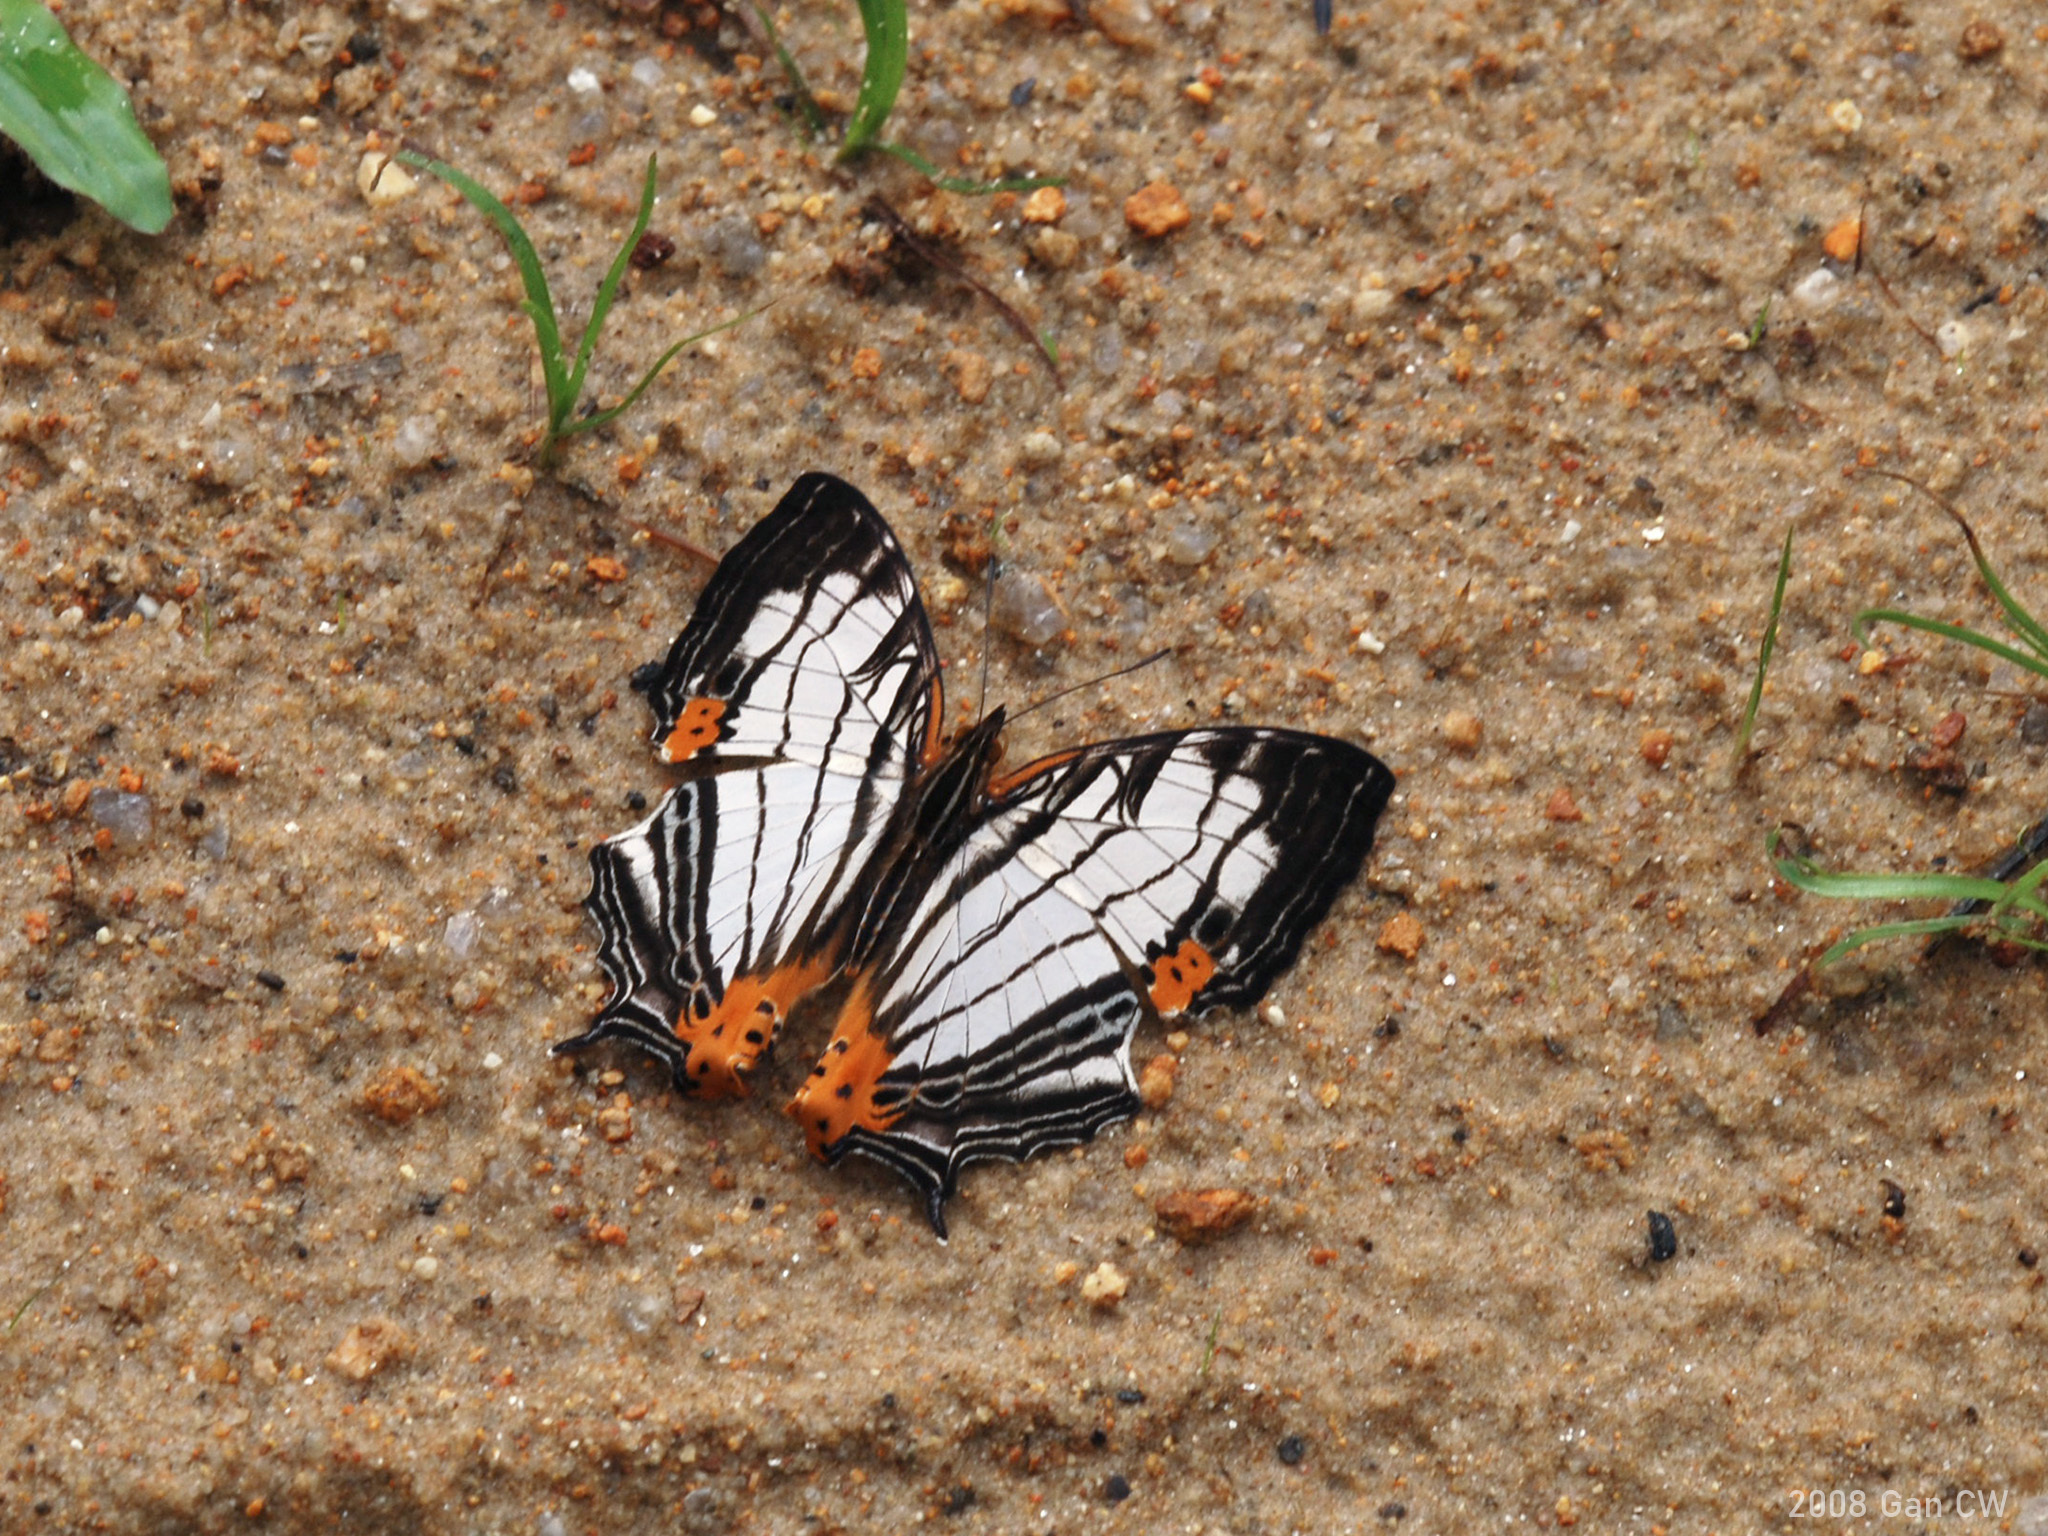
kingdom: Animalia
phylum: Arthropoda
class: Insecta
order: Lepidoptera
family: Nymphalidae
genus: Cyrestis
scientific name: Cyrestis maenalis
